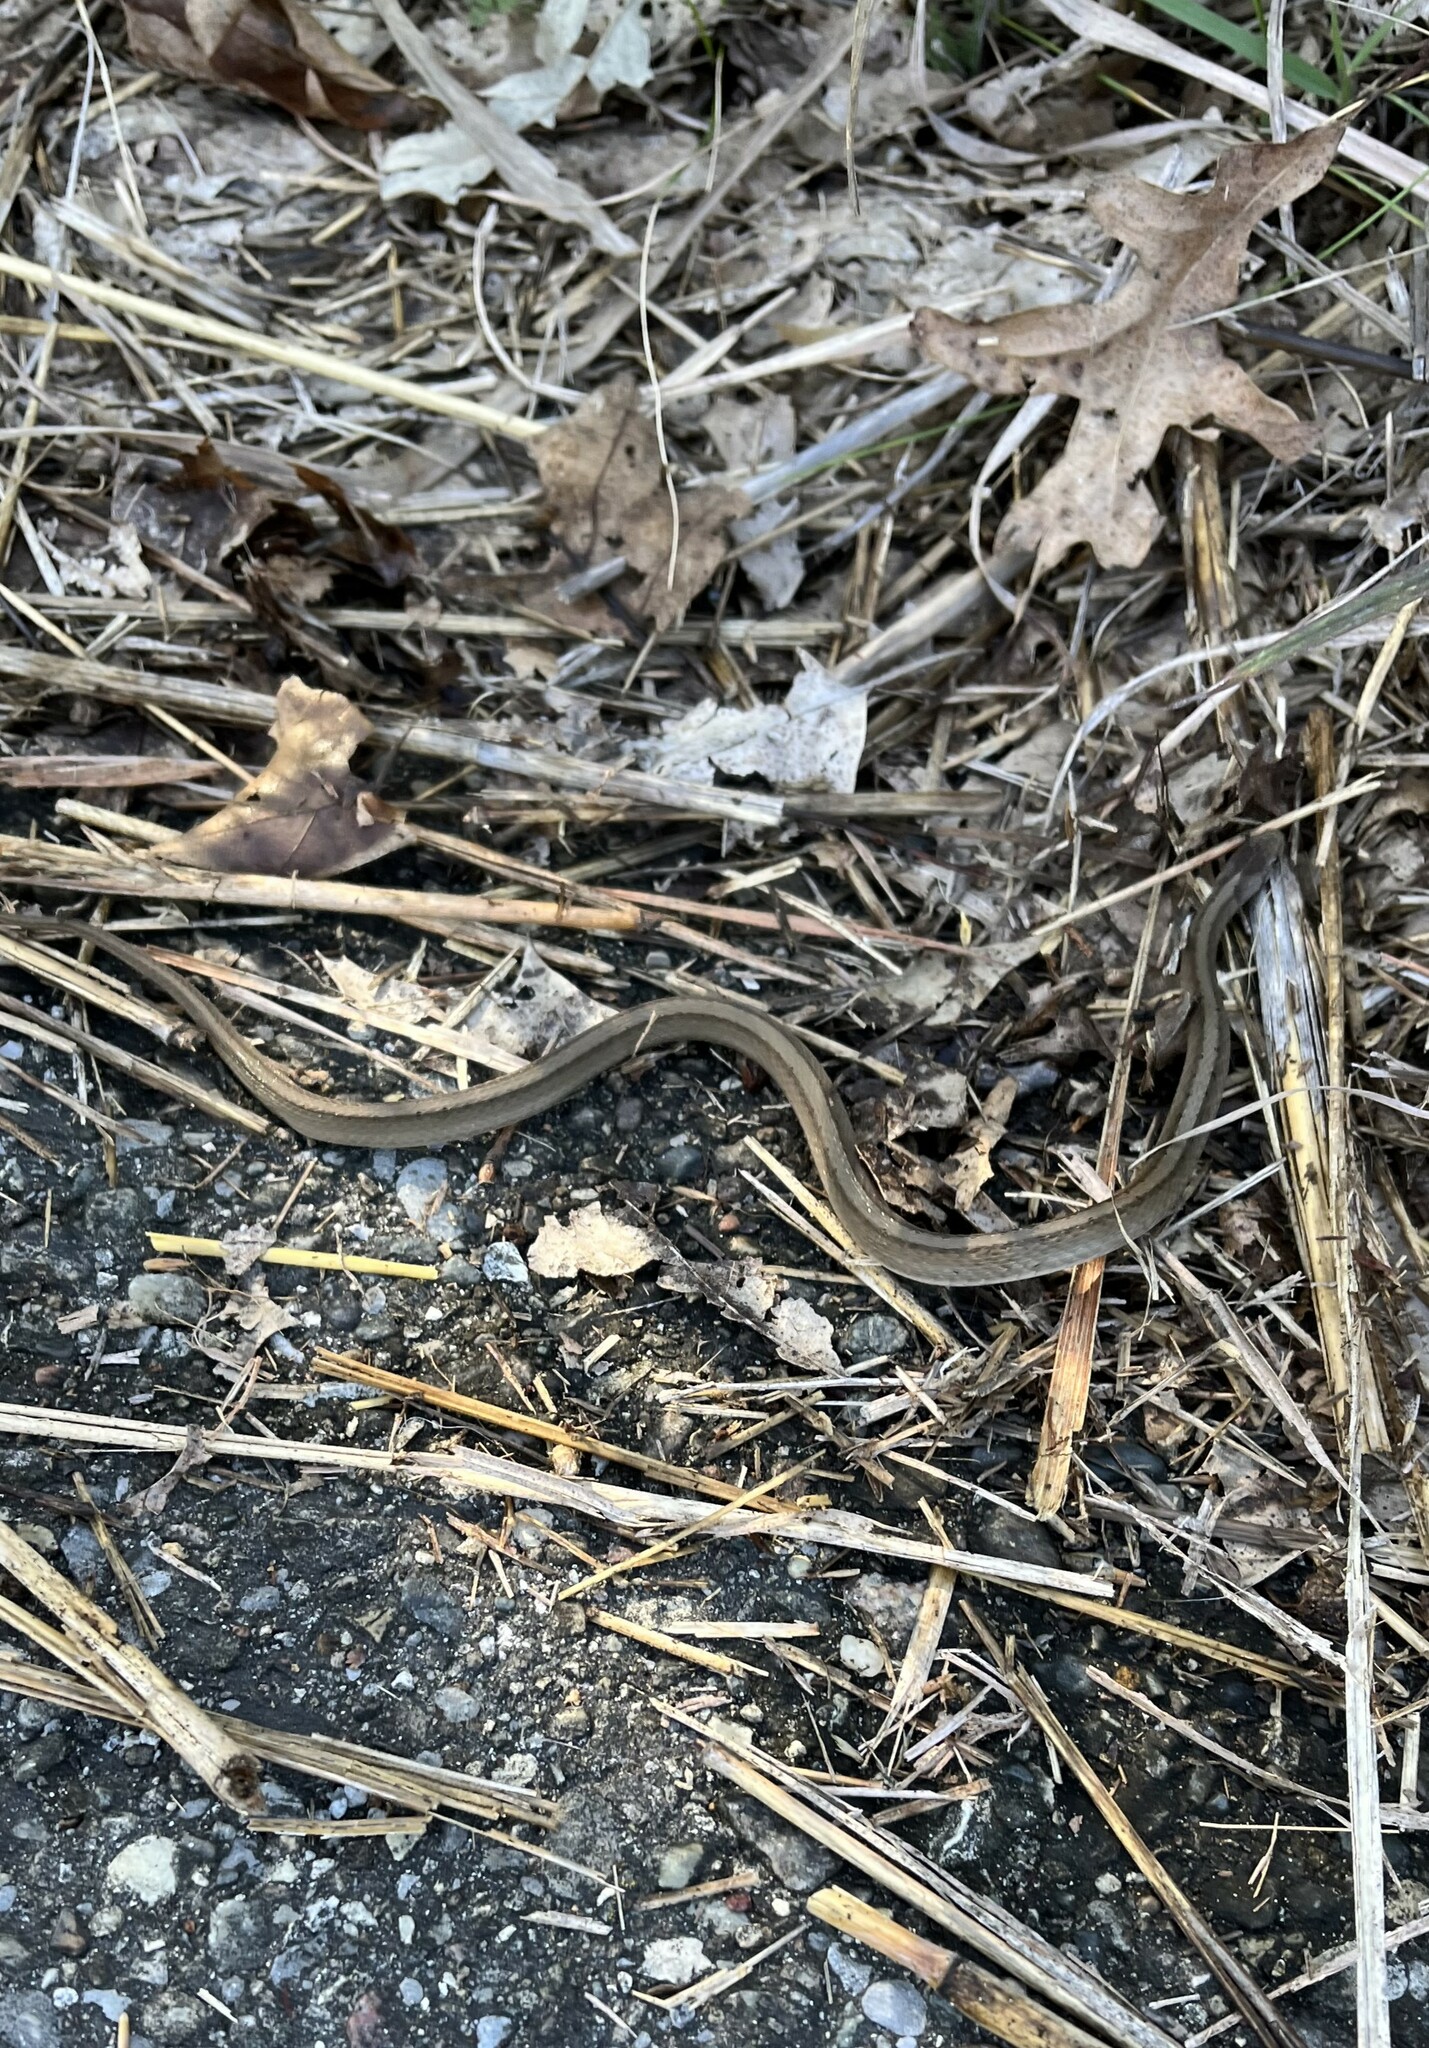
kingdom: Animalia
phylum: Chordata
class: Squamata
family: Colubridae
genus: Storeria
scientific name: Storeria dekayi
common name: (dekay’s) brown snake
